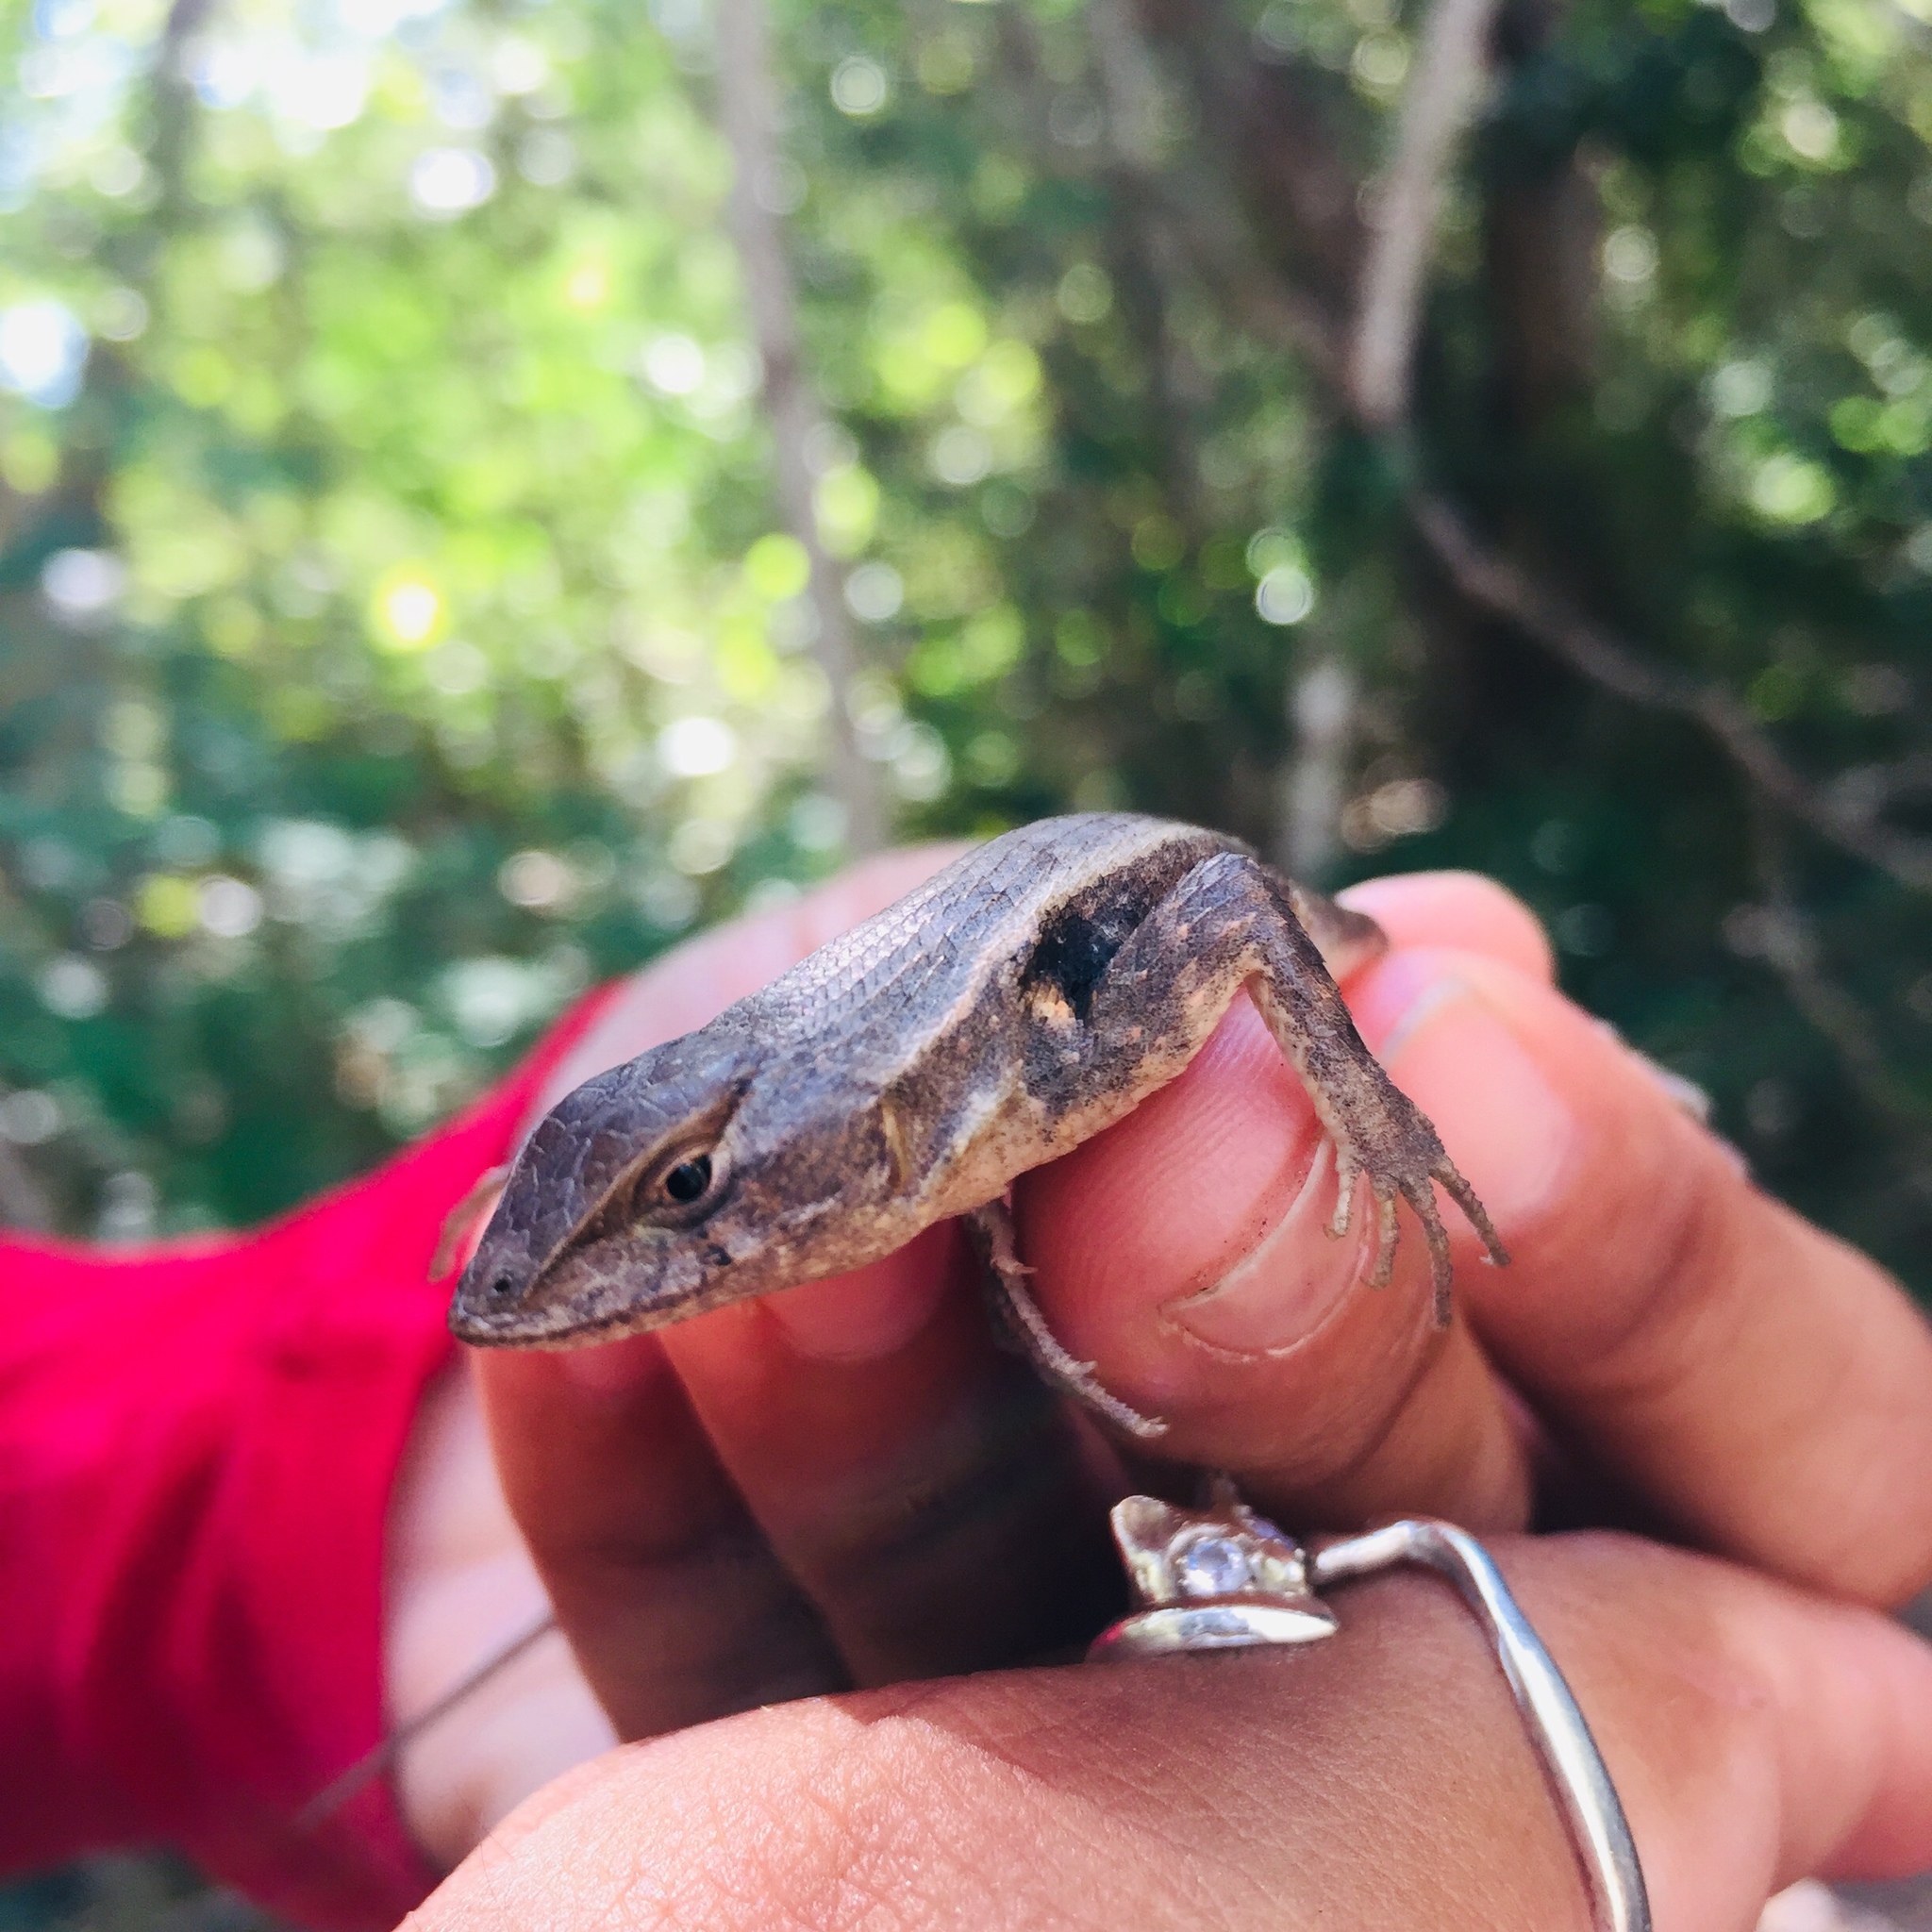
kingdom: Animalia
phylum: Chordata
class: Squamata
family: Phrynosomatidae
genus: Sceloporus
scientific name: Sceloporus chrysostictus
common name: Yellow-spotted spiny lizard
